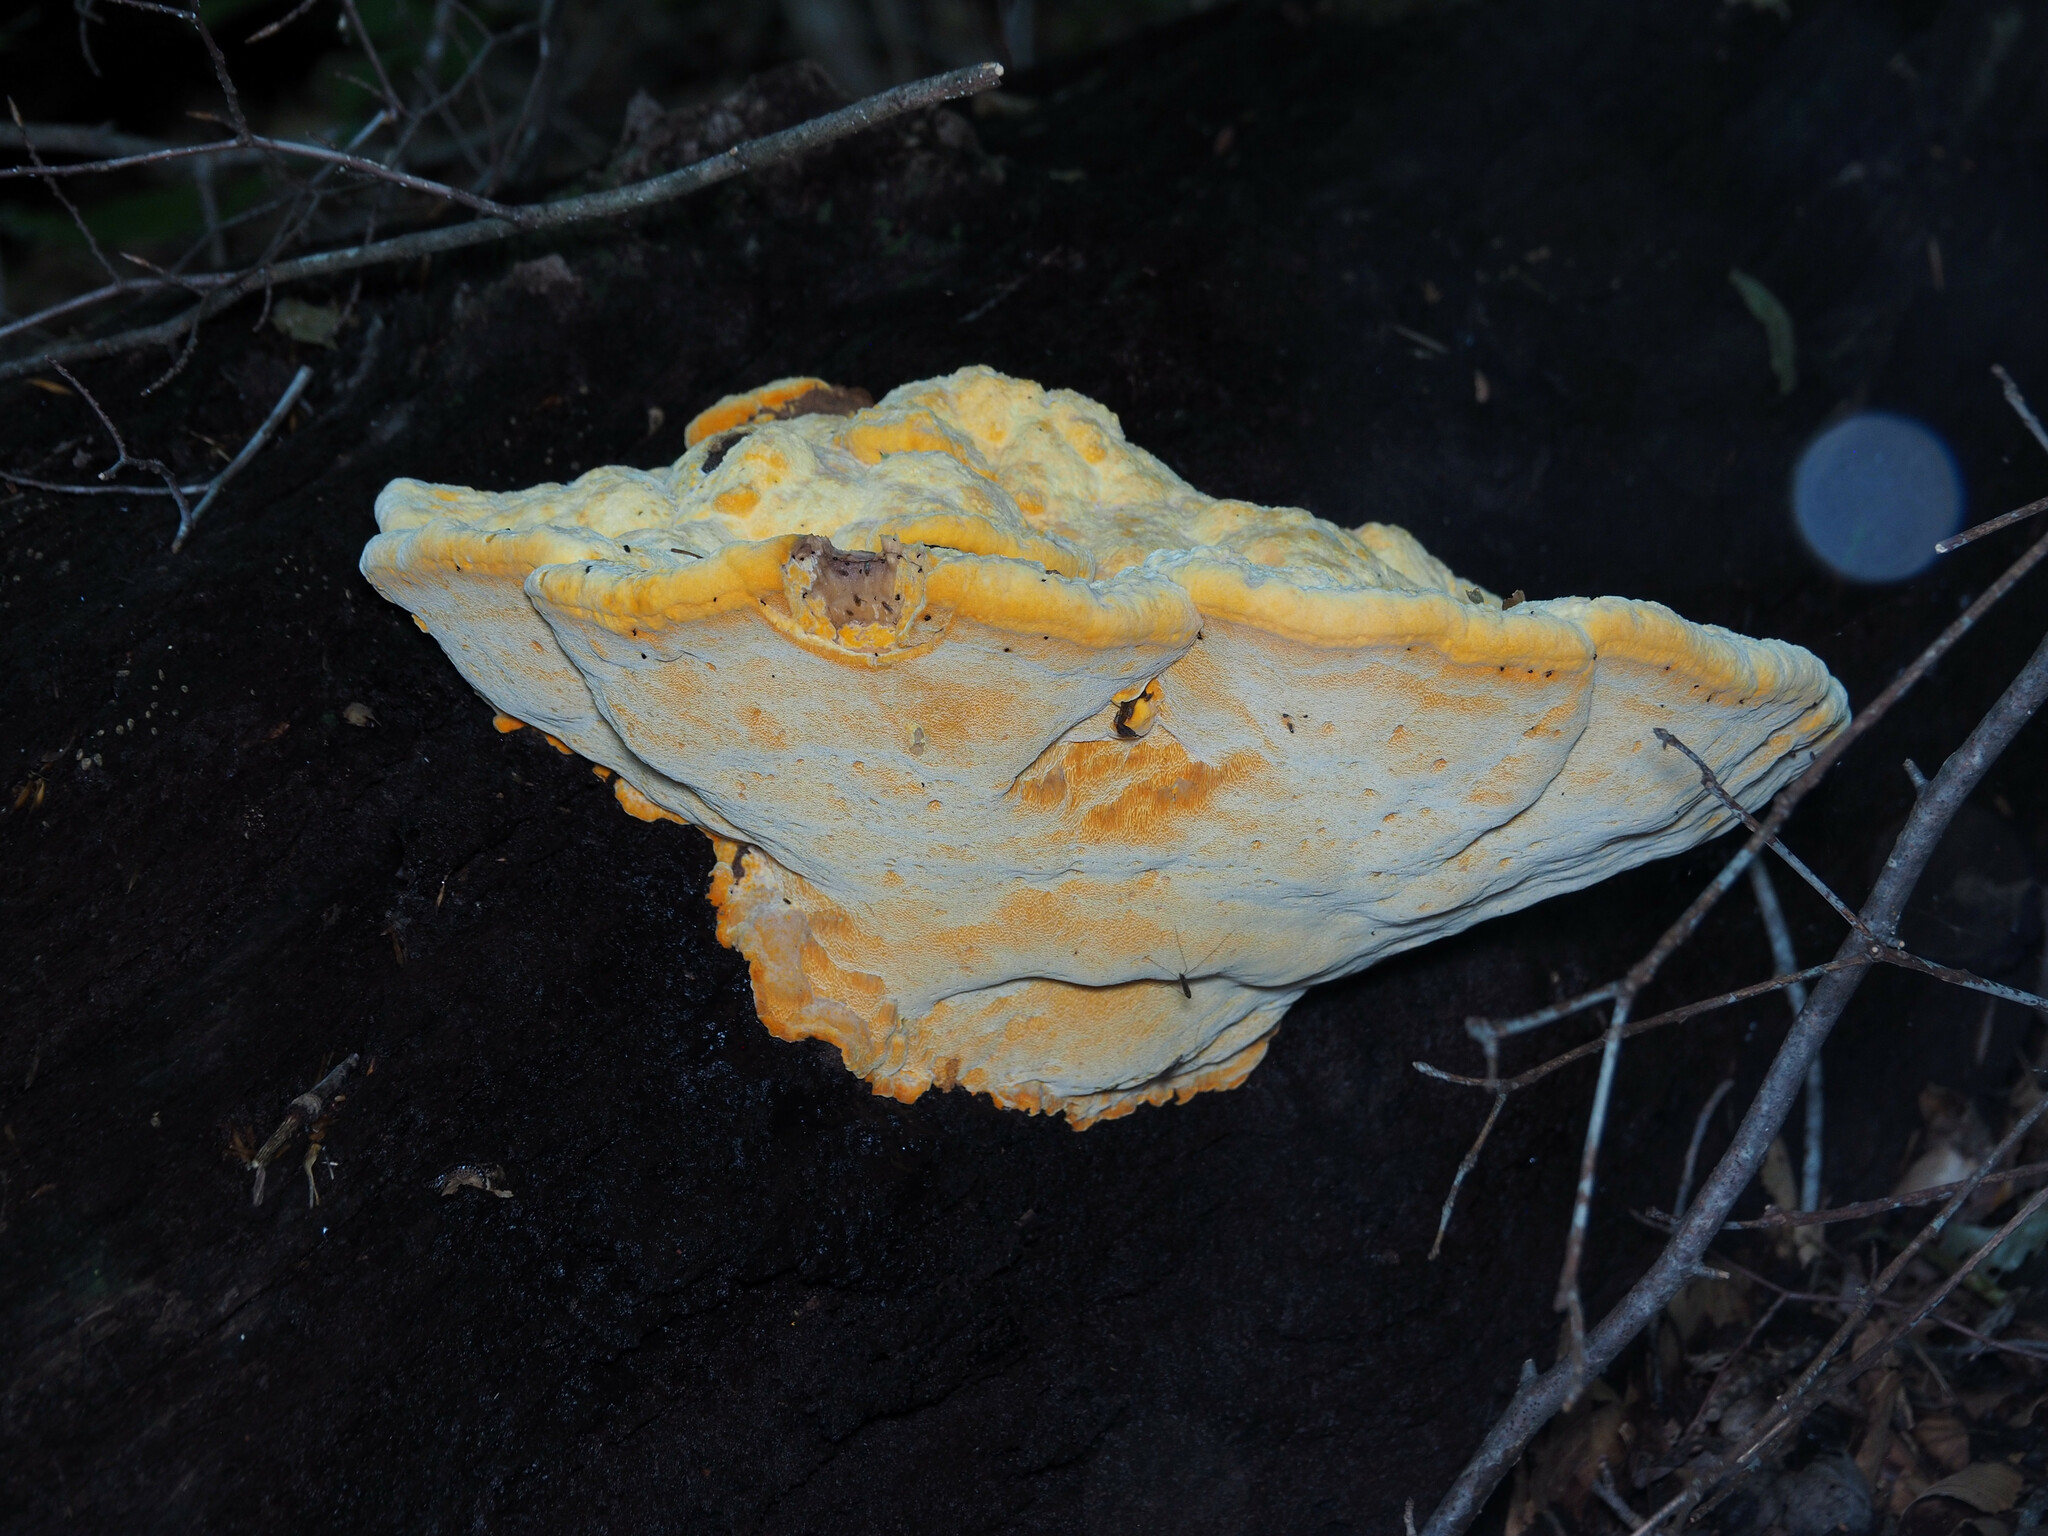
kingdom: Fungi
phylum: Basidiomycota
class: Agaricomycetes
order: Polyporales
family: Phanerochaetaceae
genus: Hapalopilus
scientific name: Hapalopilus croceus
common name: Orange polypore
